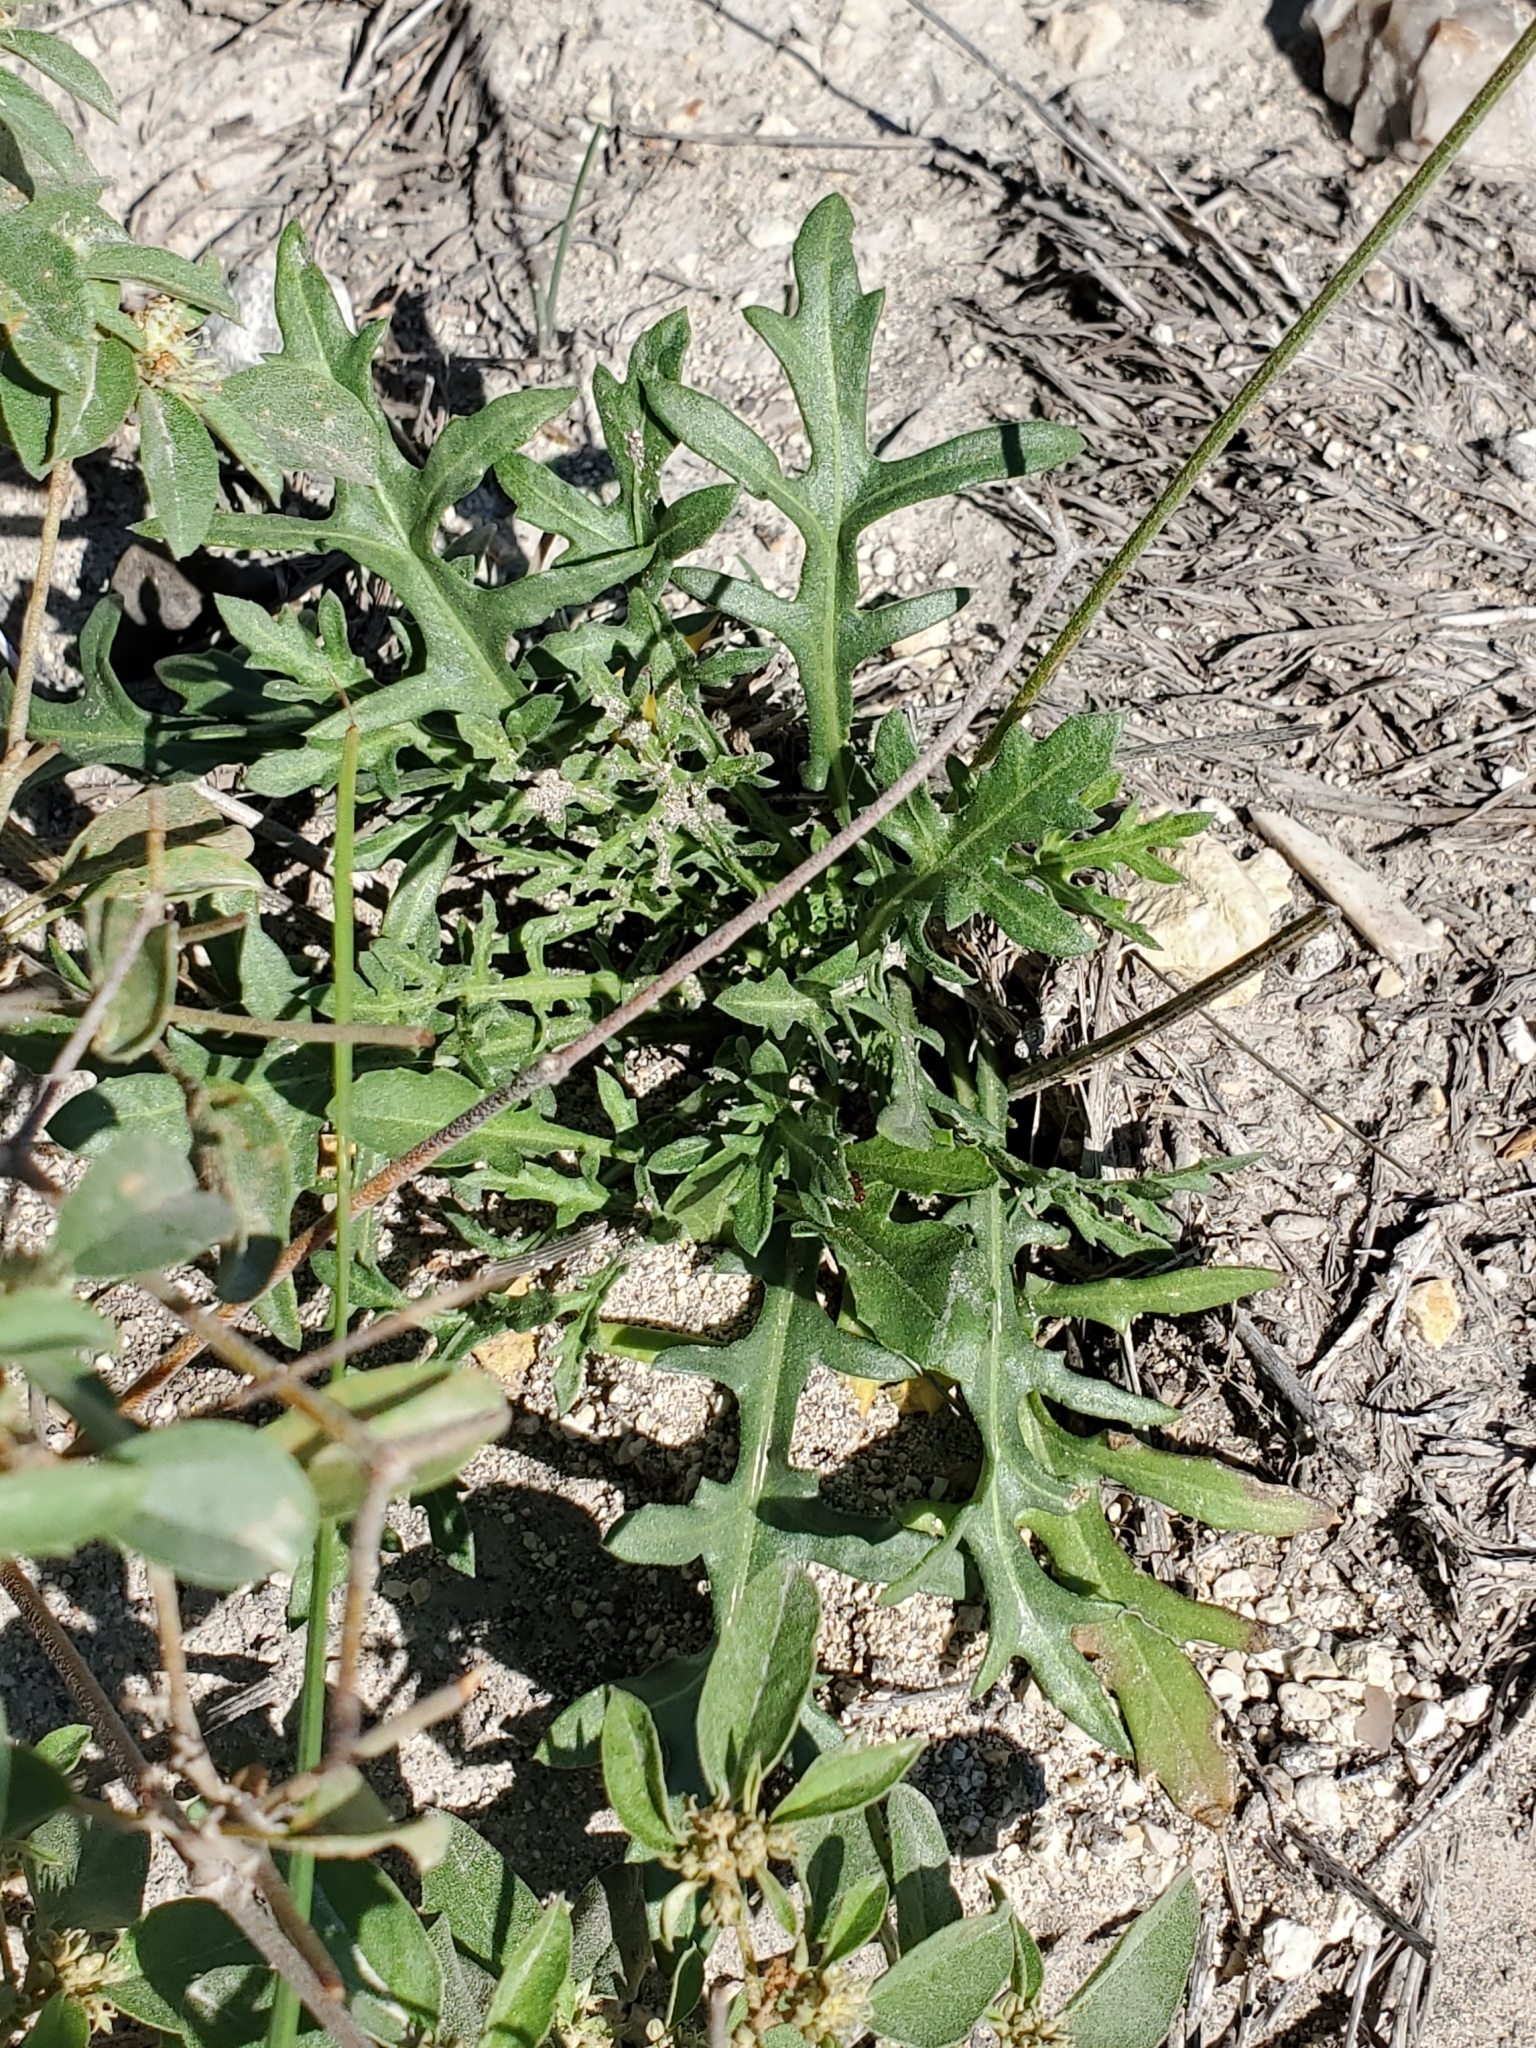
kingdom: Plantae
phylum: Tracheophyta
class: Magnoliopsida
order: Asterales
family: Asteraceae
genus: Gaillardia
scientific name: Gaillardia suavis
